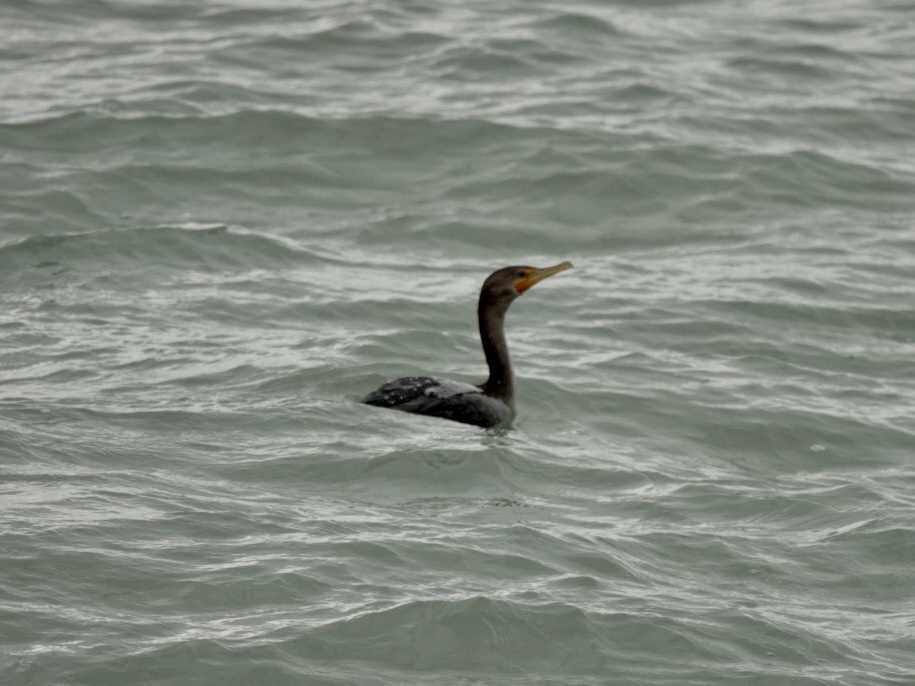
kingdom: Animalia
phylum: Chordata
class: Aves
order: Suliformes
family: Phalacrocoracidae
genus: Phalacrocorax
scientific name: Phalacrocorax auritus
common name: Double-crested cormorant
